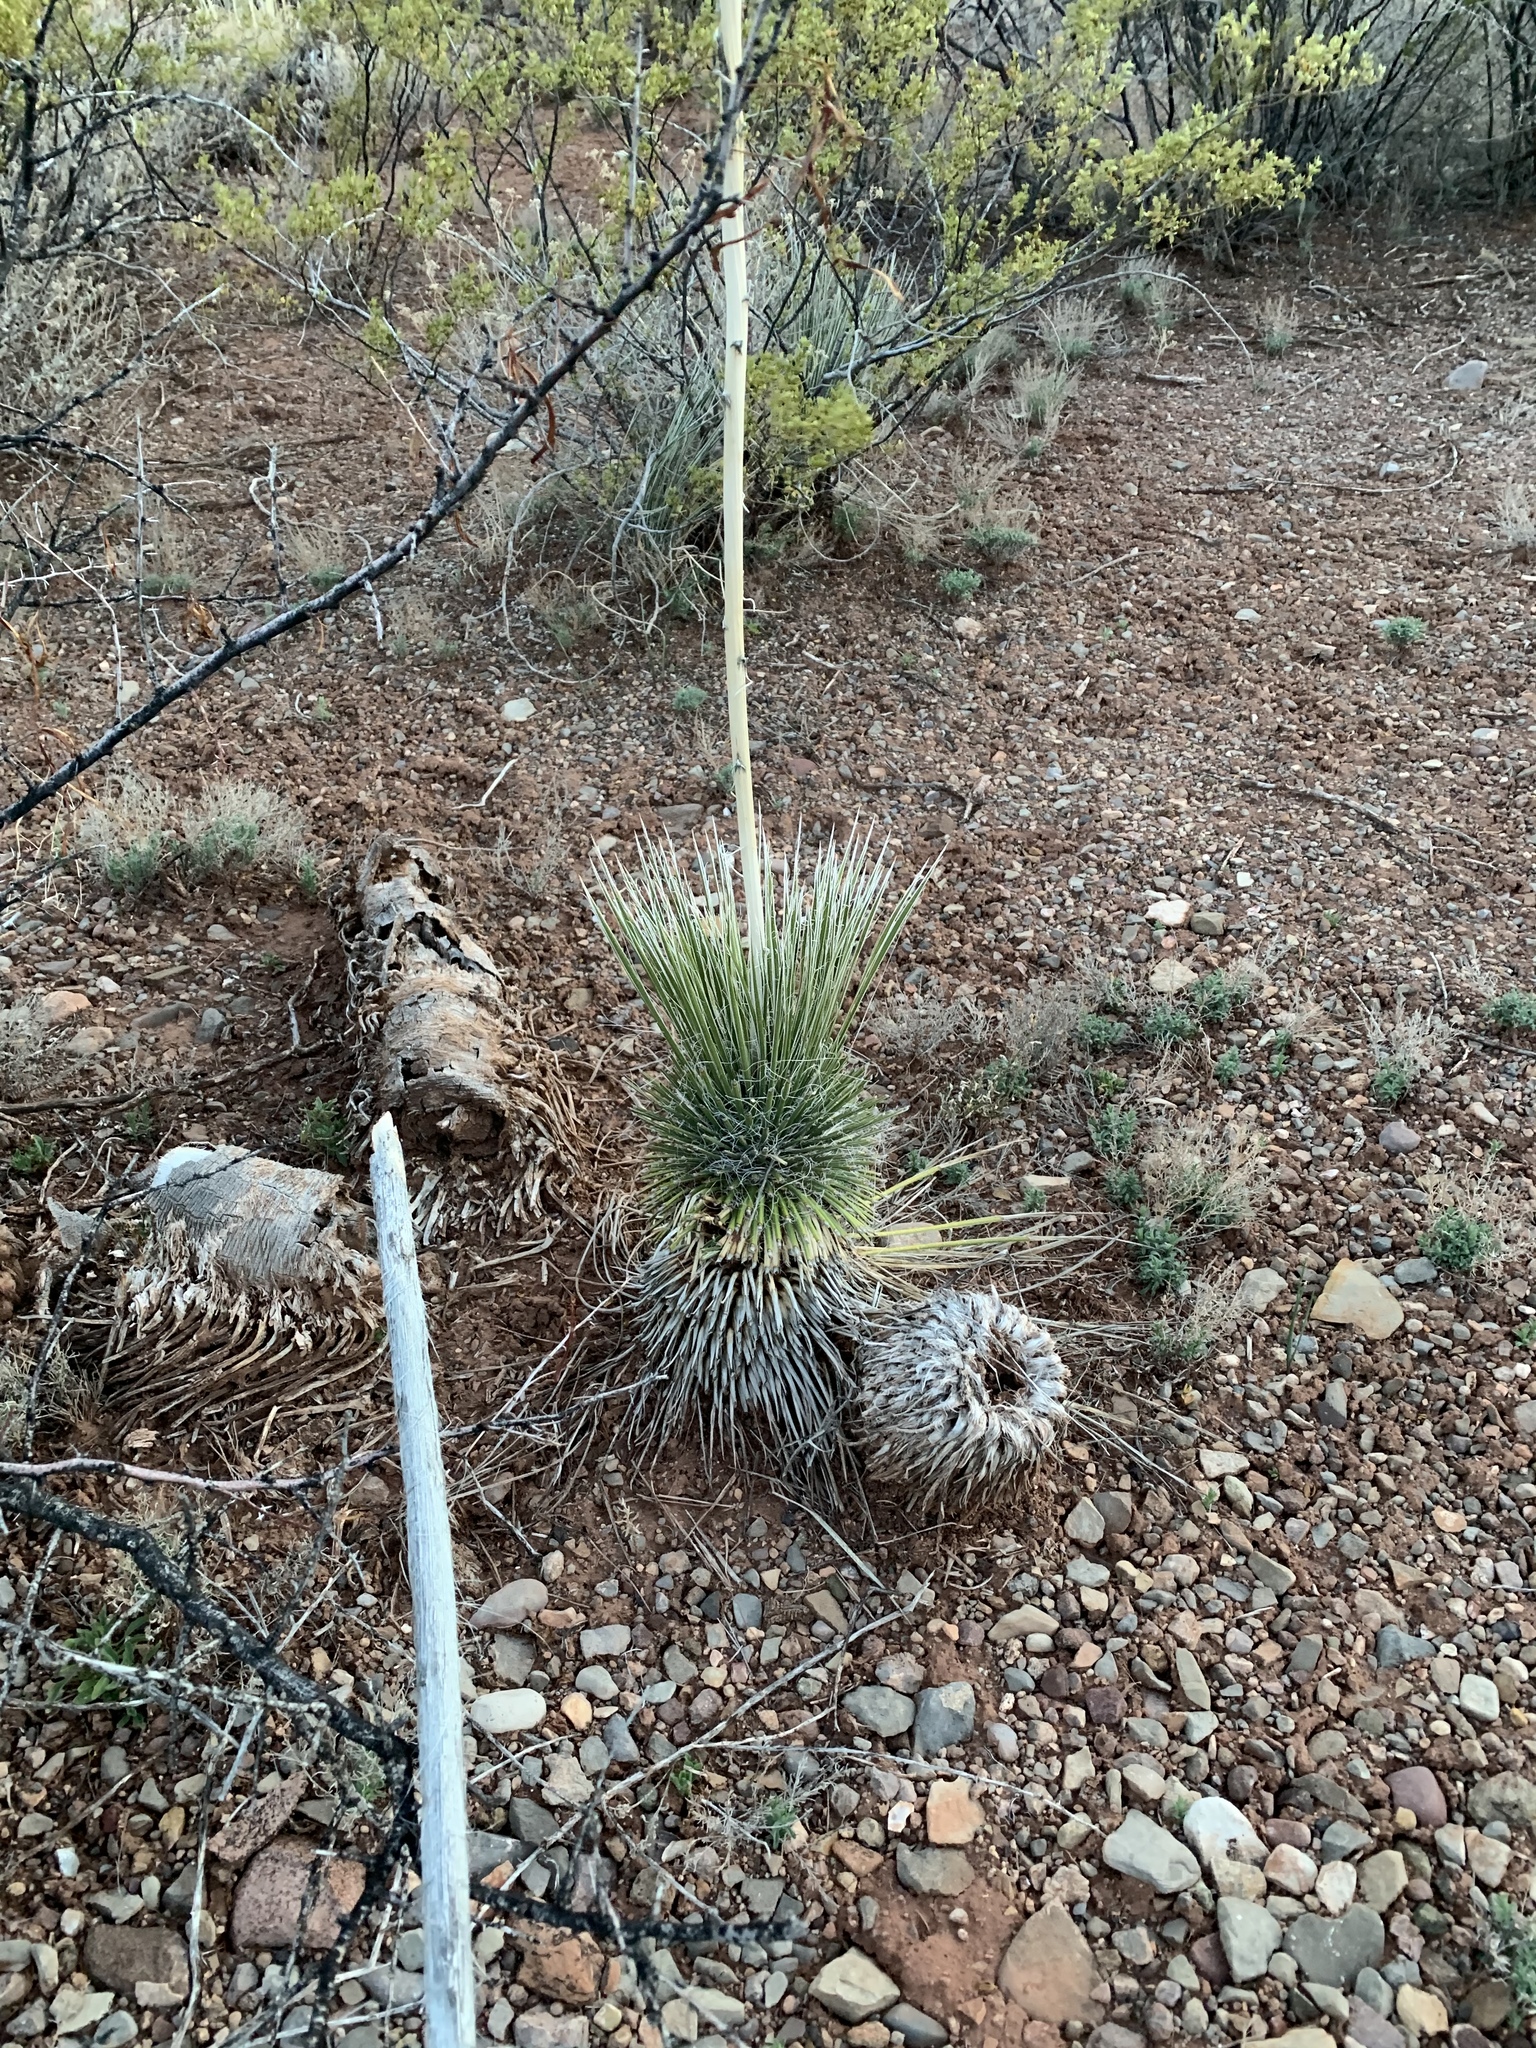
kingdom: Plantae
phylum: Tracheophyta
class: Liliopsida
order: Asparagales
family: Asparagaceae
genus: Yucca
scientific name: Yucca elata
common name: Palmella
